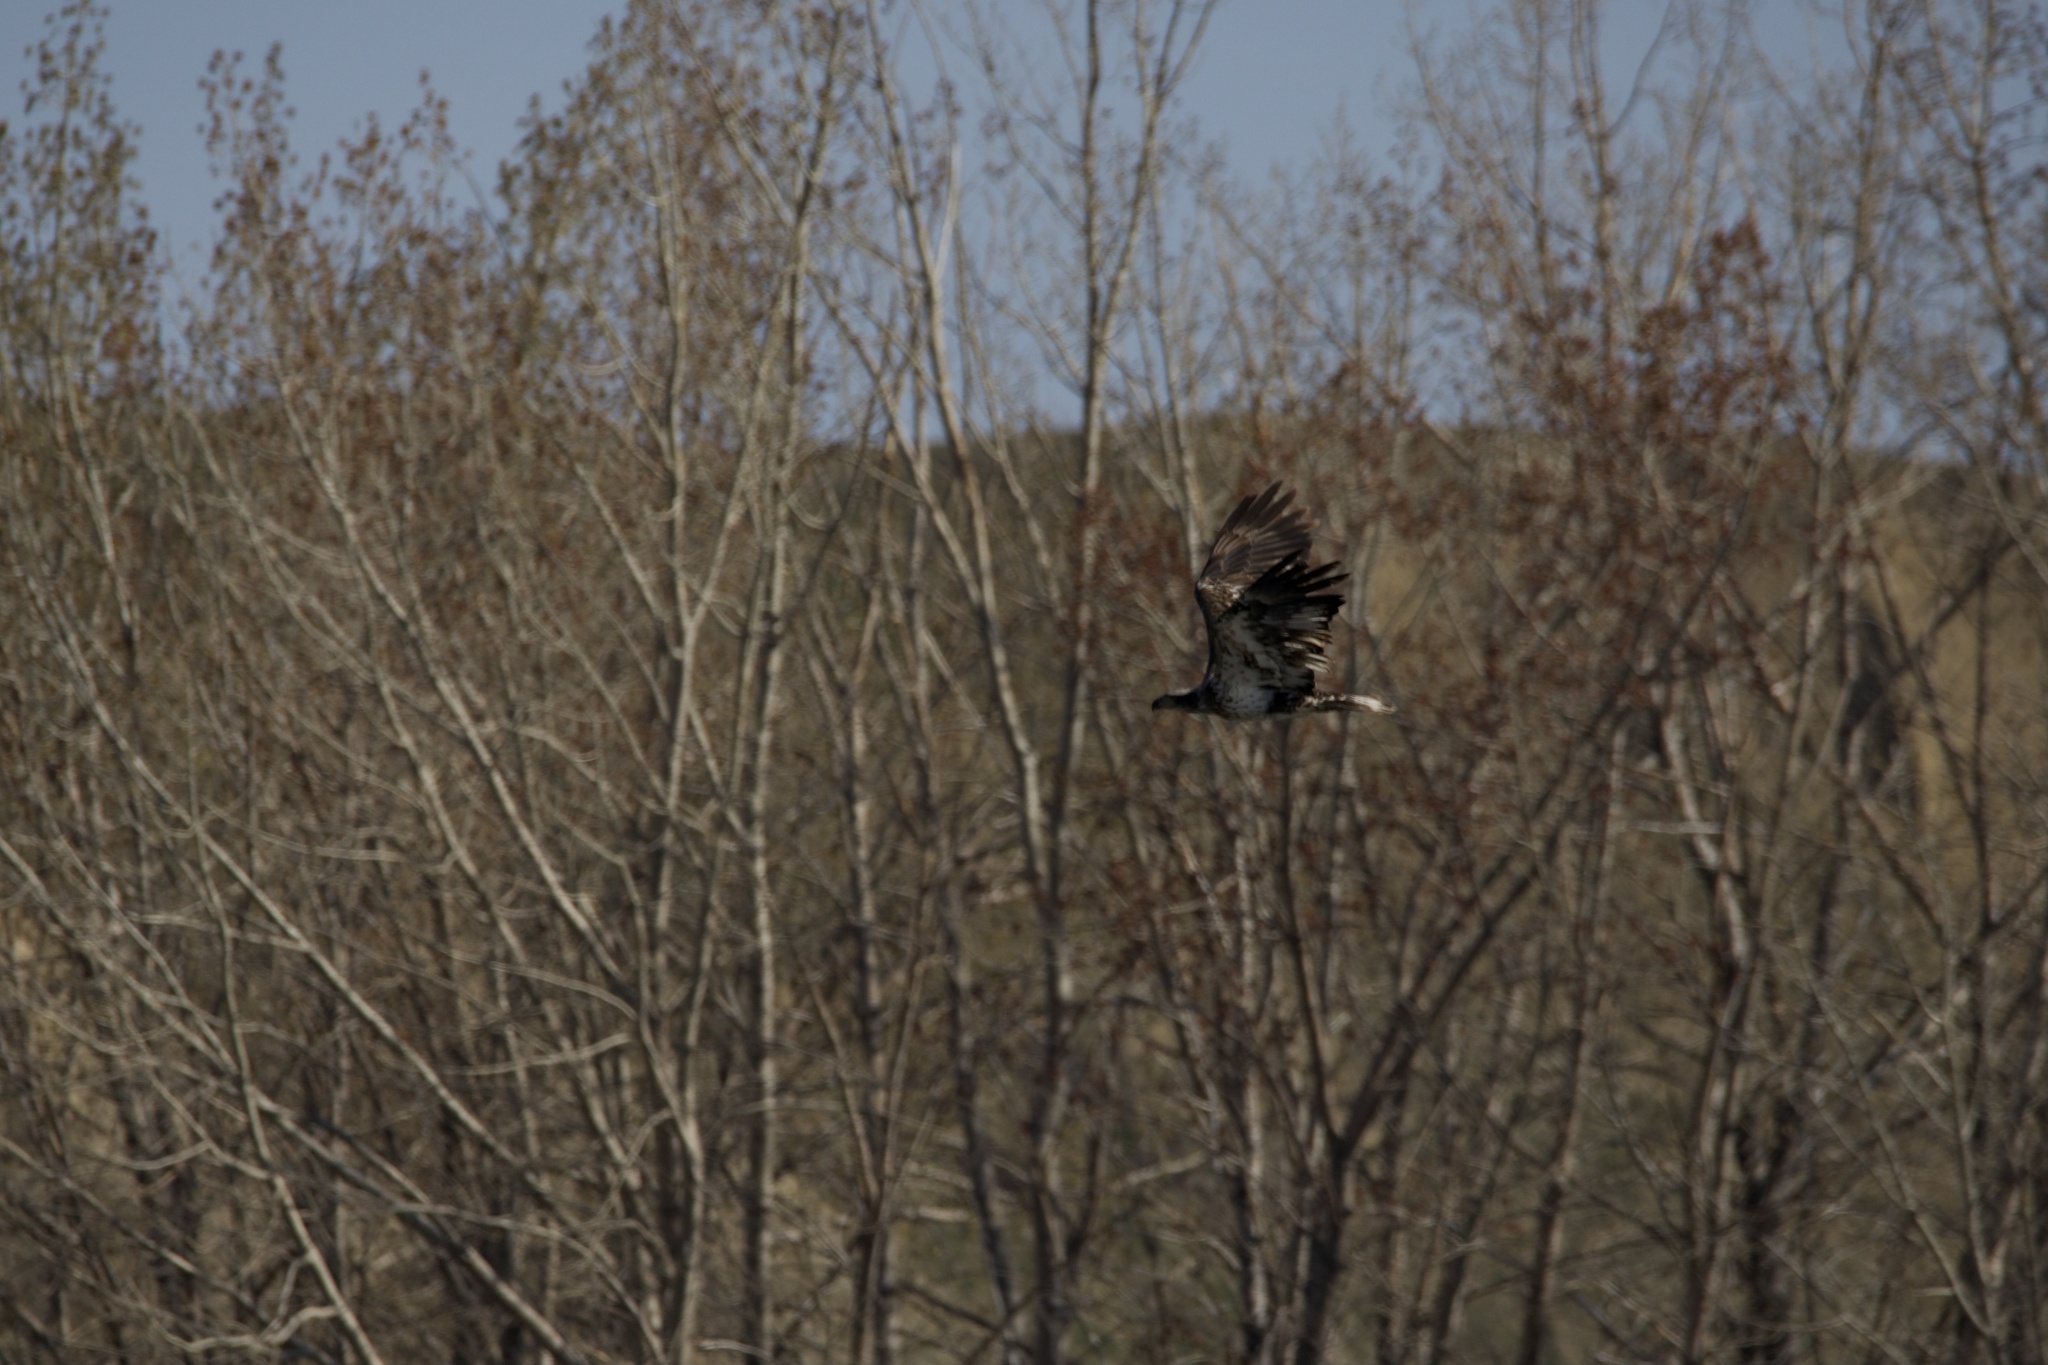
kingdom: Animalia
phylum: Chordata
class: Aves
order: Accipitriformes
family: Accipitridae
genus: Haliaeetus
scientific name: Haliaeetus leucocephalus
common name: Bald eagle
